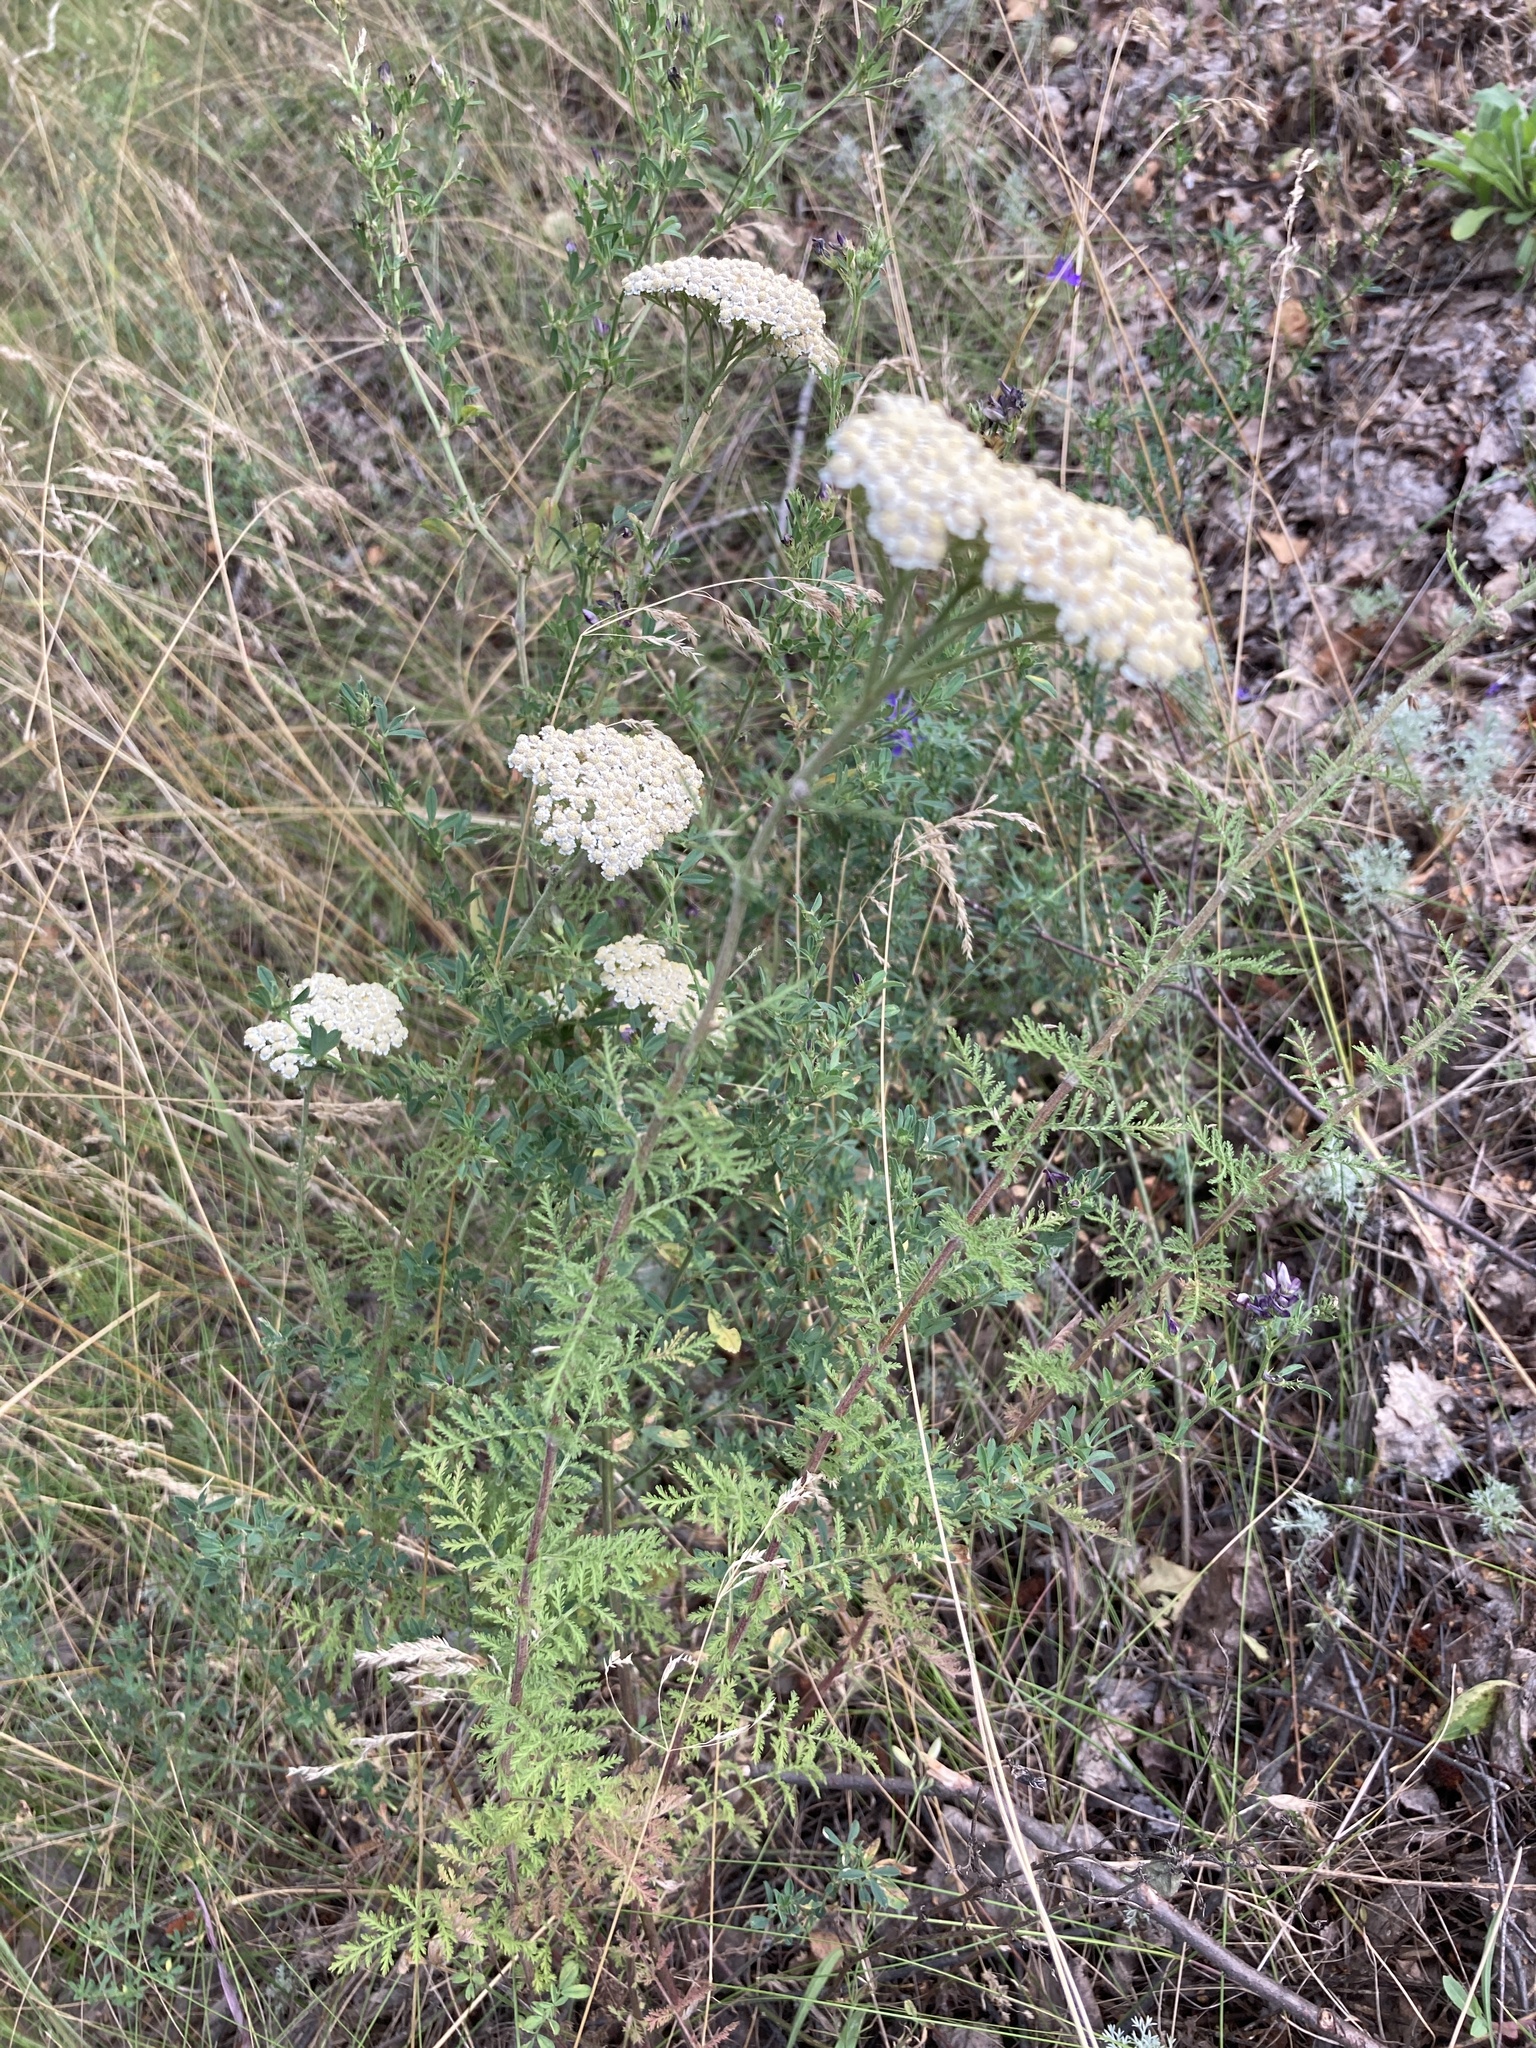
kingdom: Plantae
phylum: Tracheophyta
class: Magnoliopsida
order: Asterales
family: Asteraceae
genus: Achillea
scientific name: Achillea nobilis
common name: Noble yarrow
